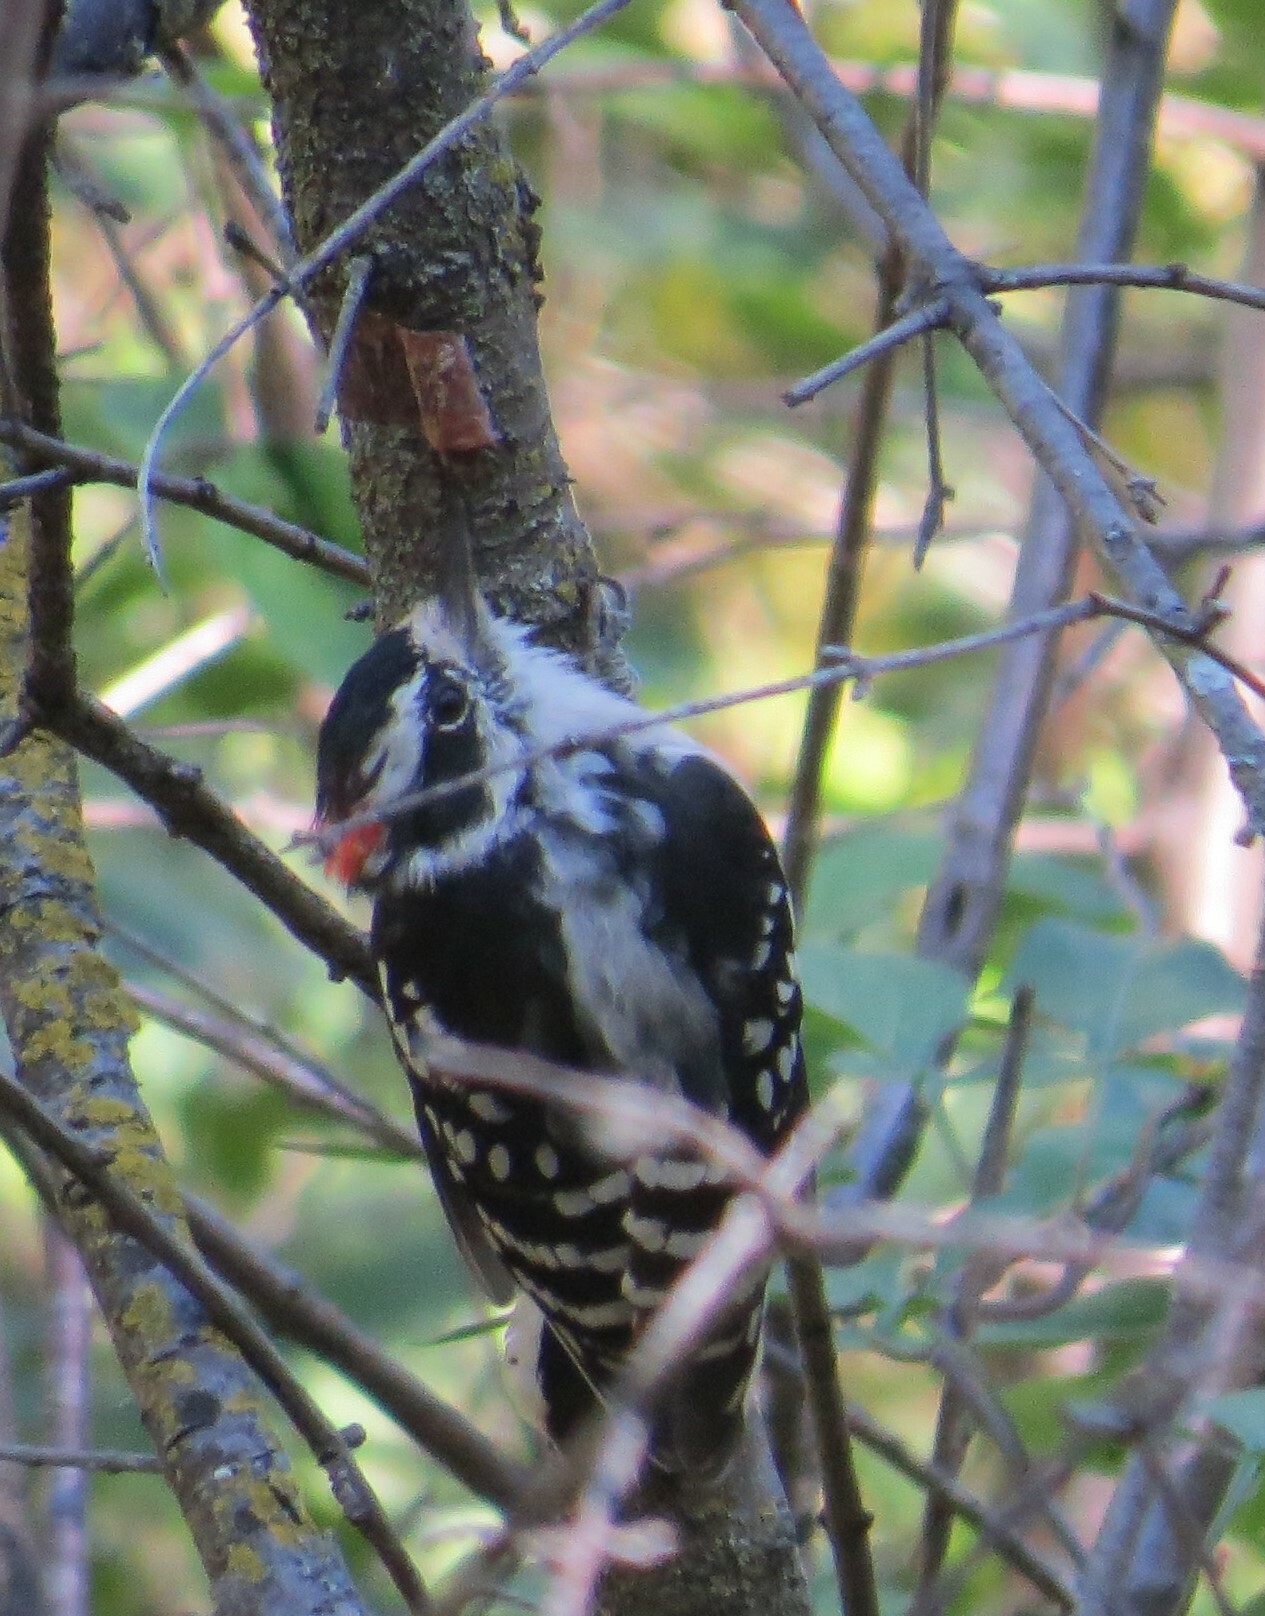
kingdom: Animalia
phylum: Chordata
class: Aves
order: Piciformes
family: Picidae
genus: Dryobates
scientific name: Dryobates pubescens
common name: Downy woodpecker
